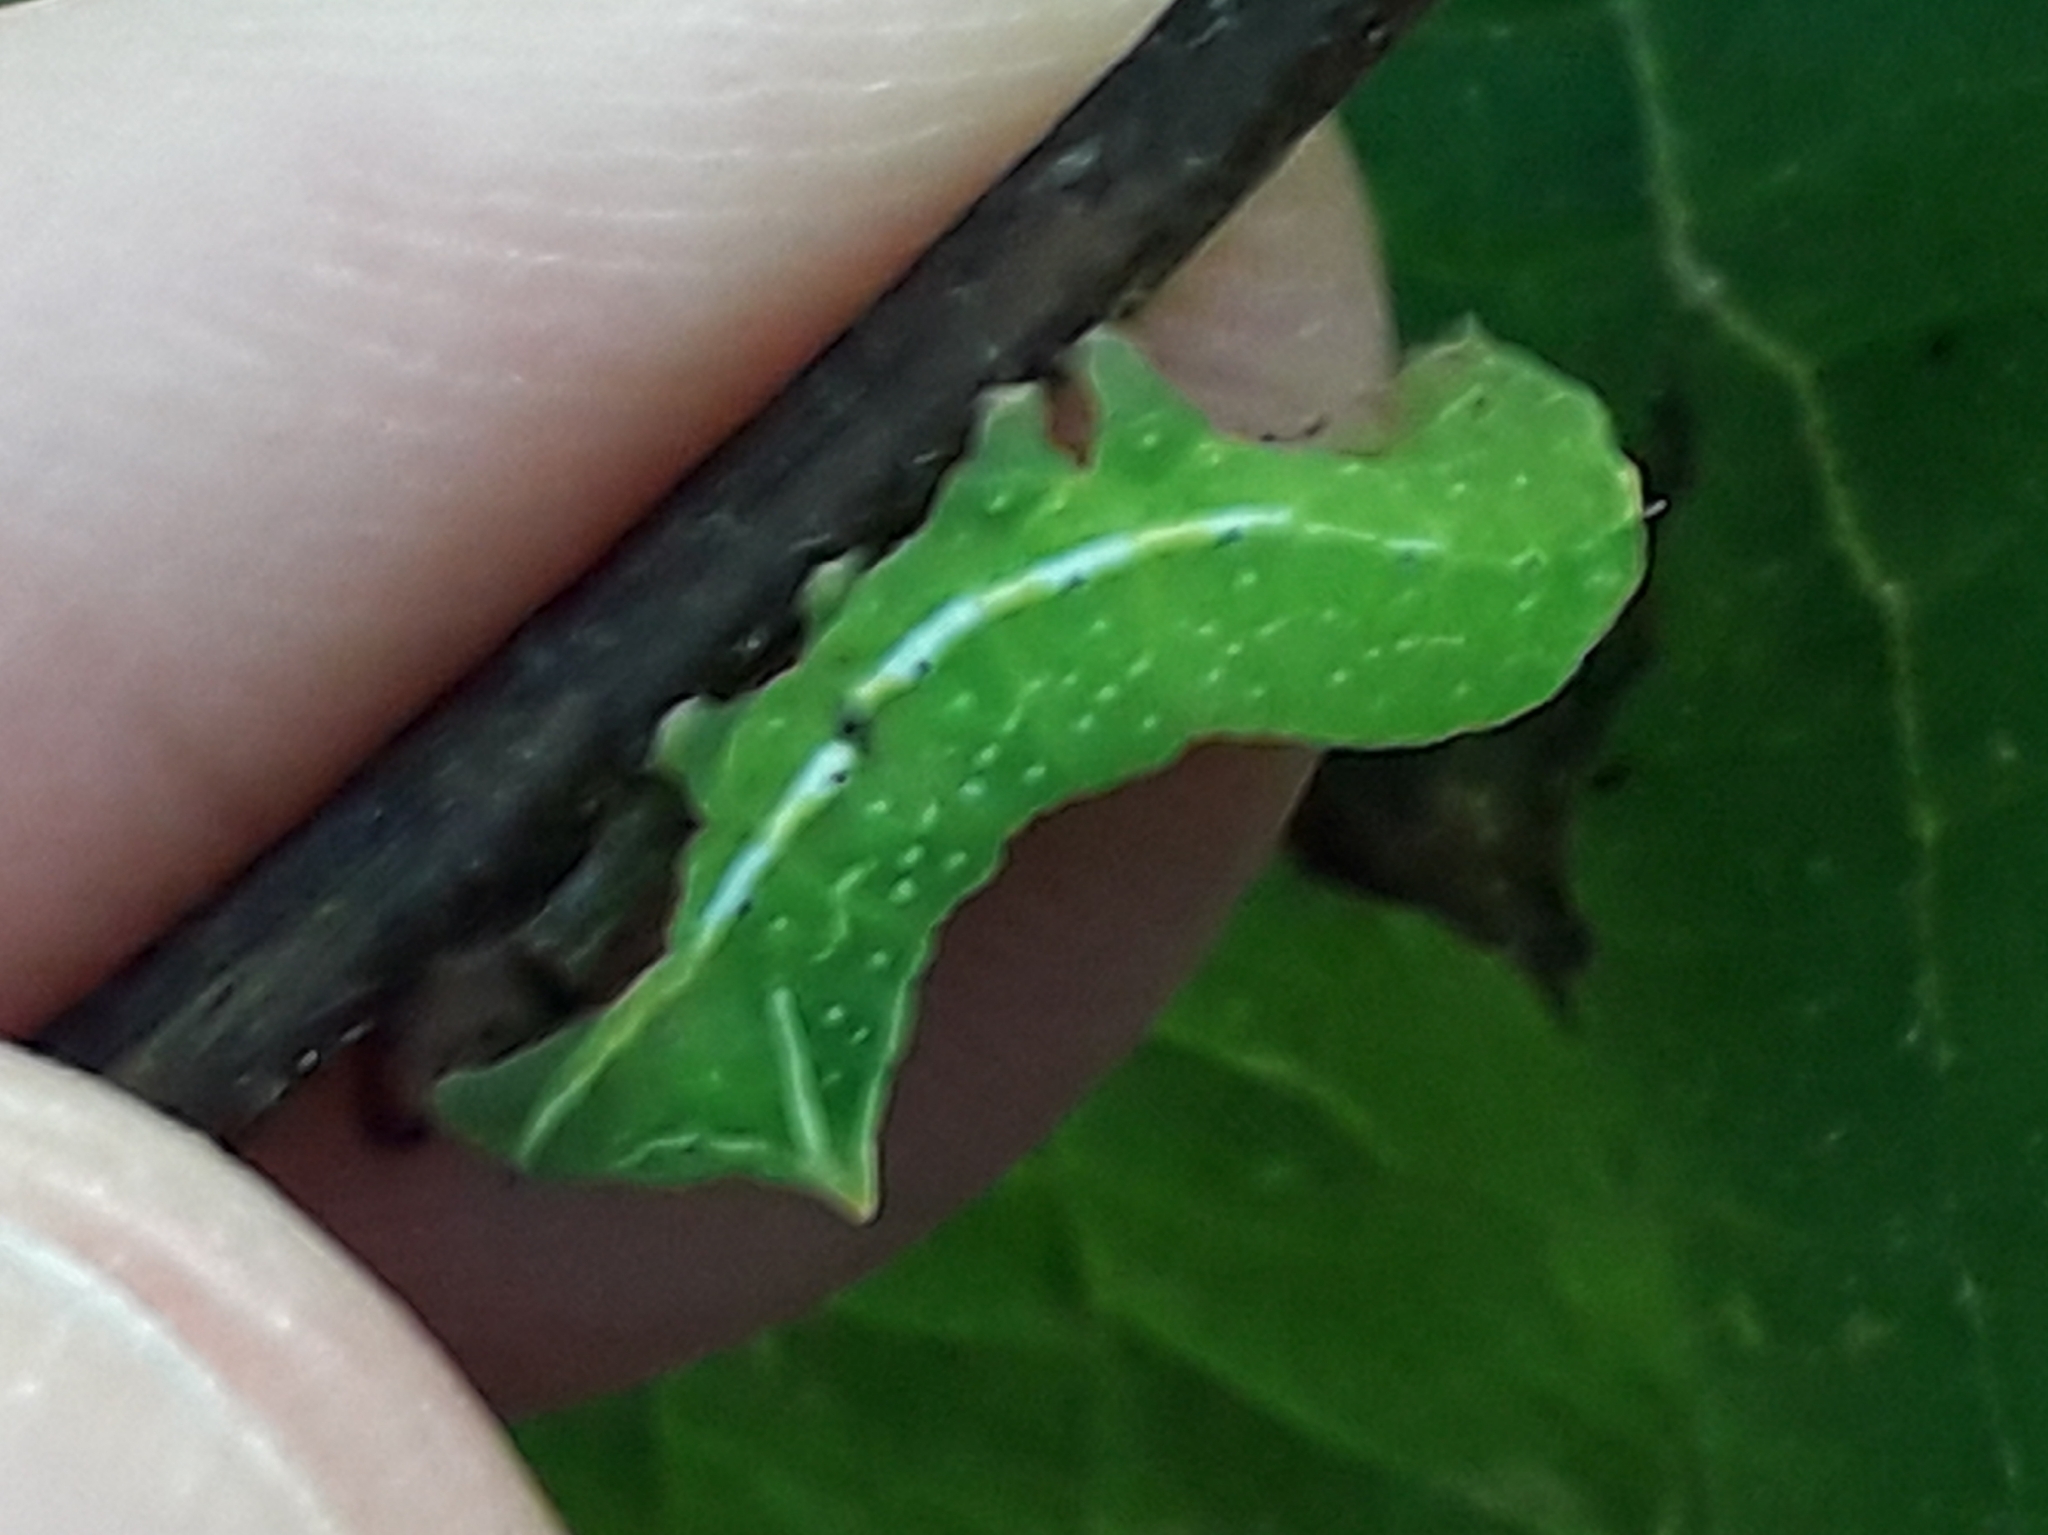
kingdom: Animalia
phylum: Arthropoda
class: Insecta
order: Lepidoptera
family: Noctuidae
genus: Amphipyra
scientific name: Amphipyra pyramidea
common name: Copper underwing
